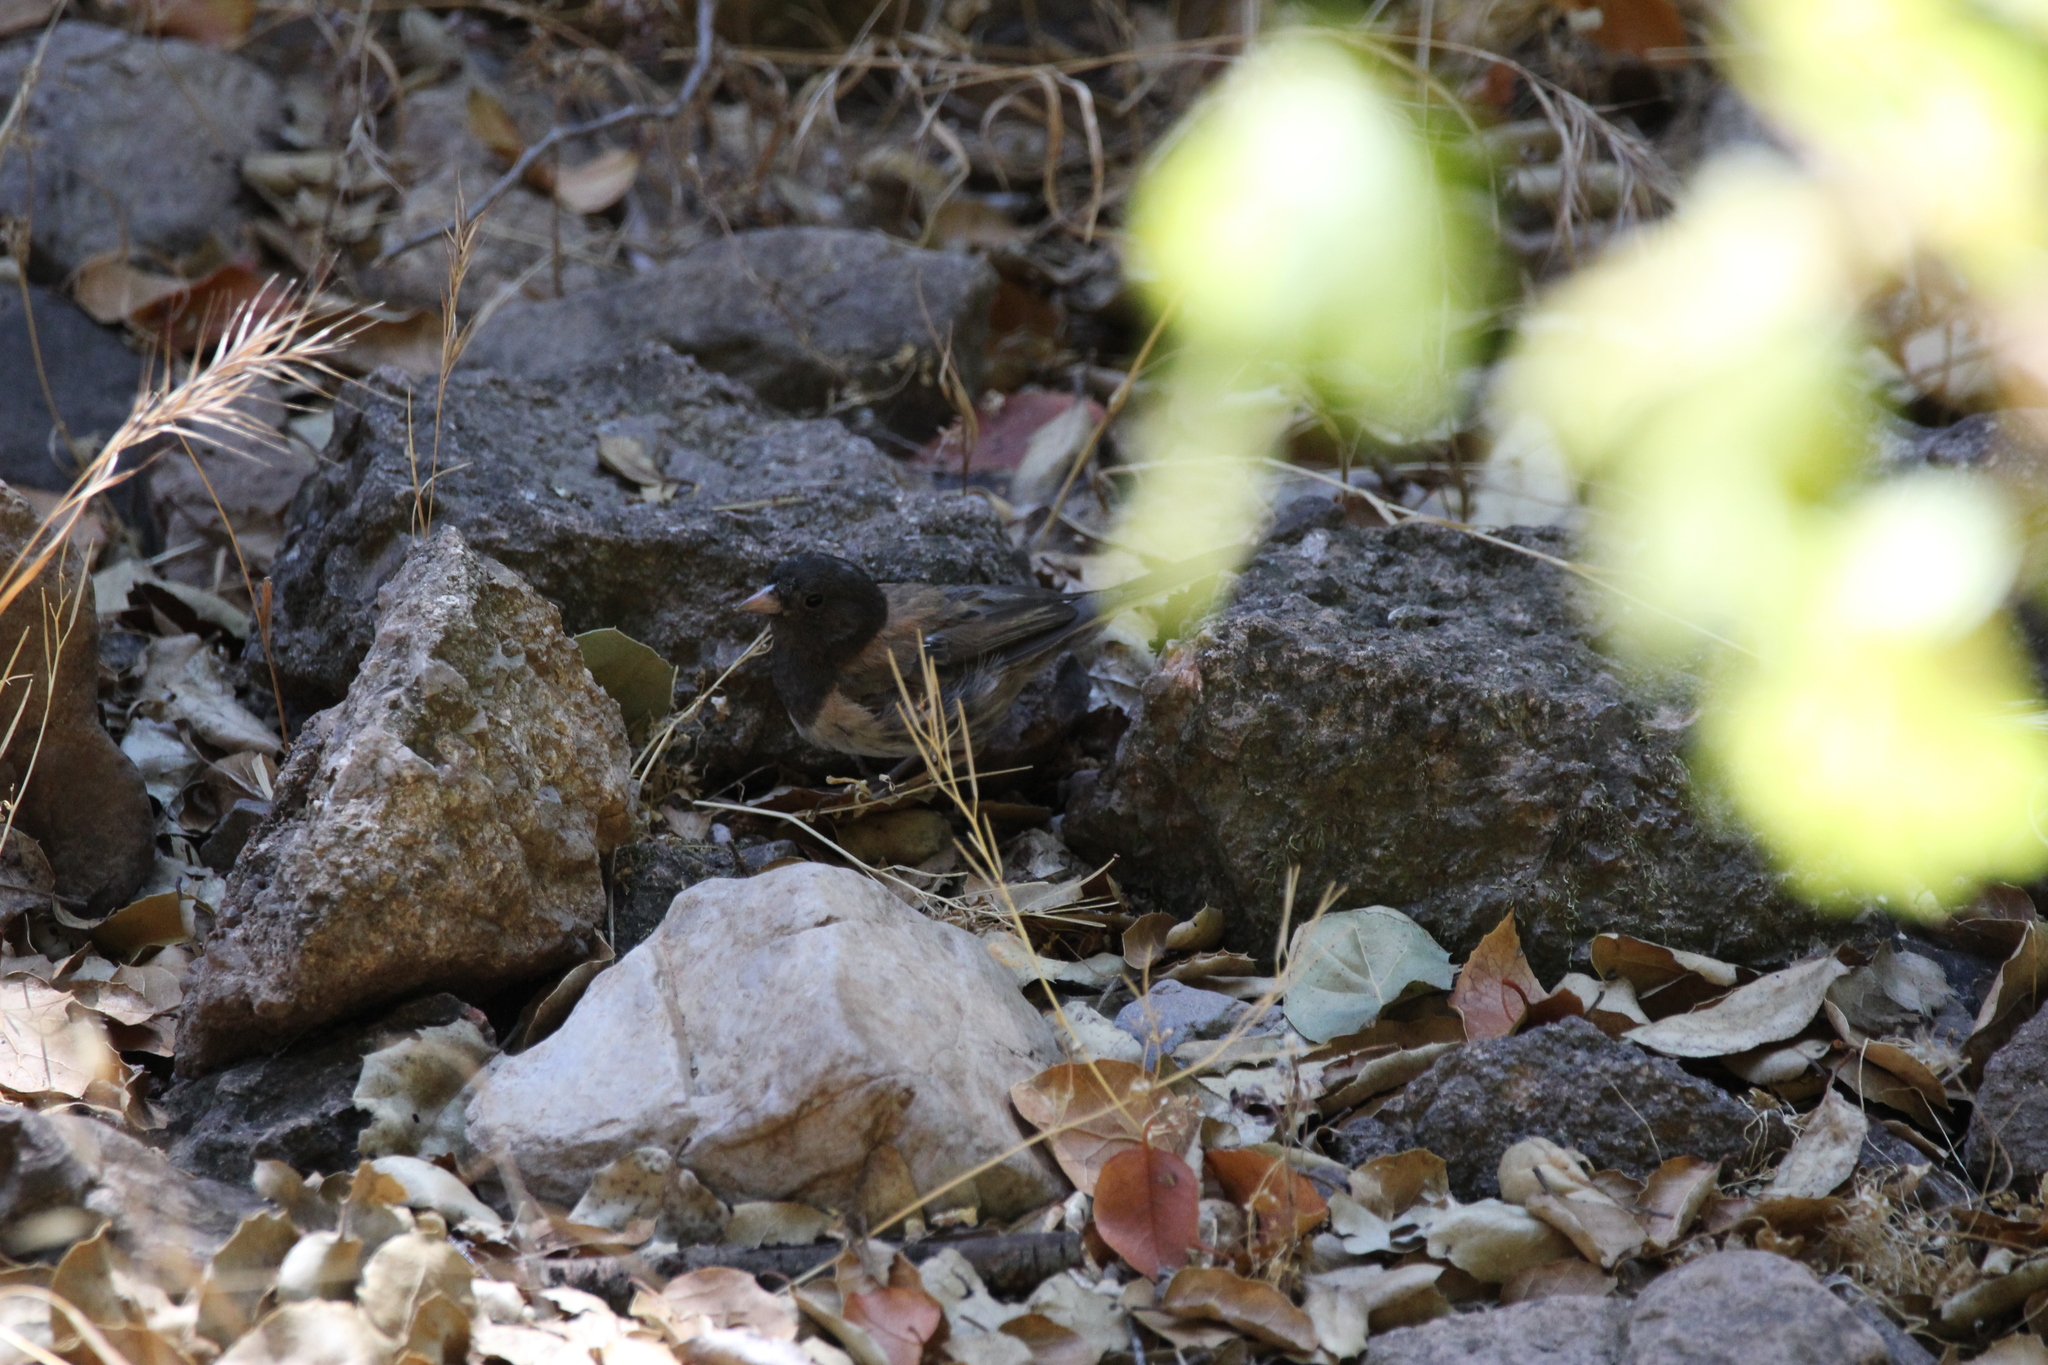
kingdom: Animalia
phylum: Chordata
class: Aves
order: Passeriformes
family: Passerellidae
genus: Junco
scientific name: Junco hyemalis
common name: Dark-eyed junco
